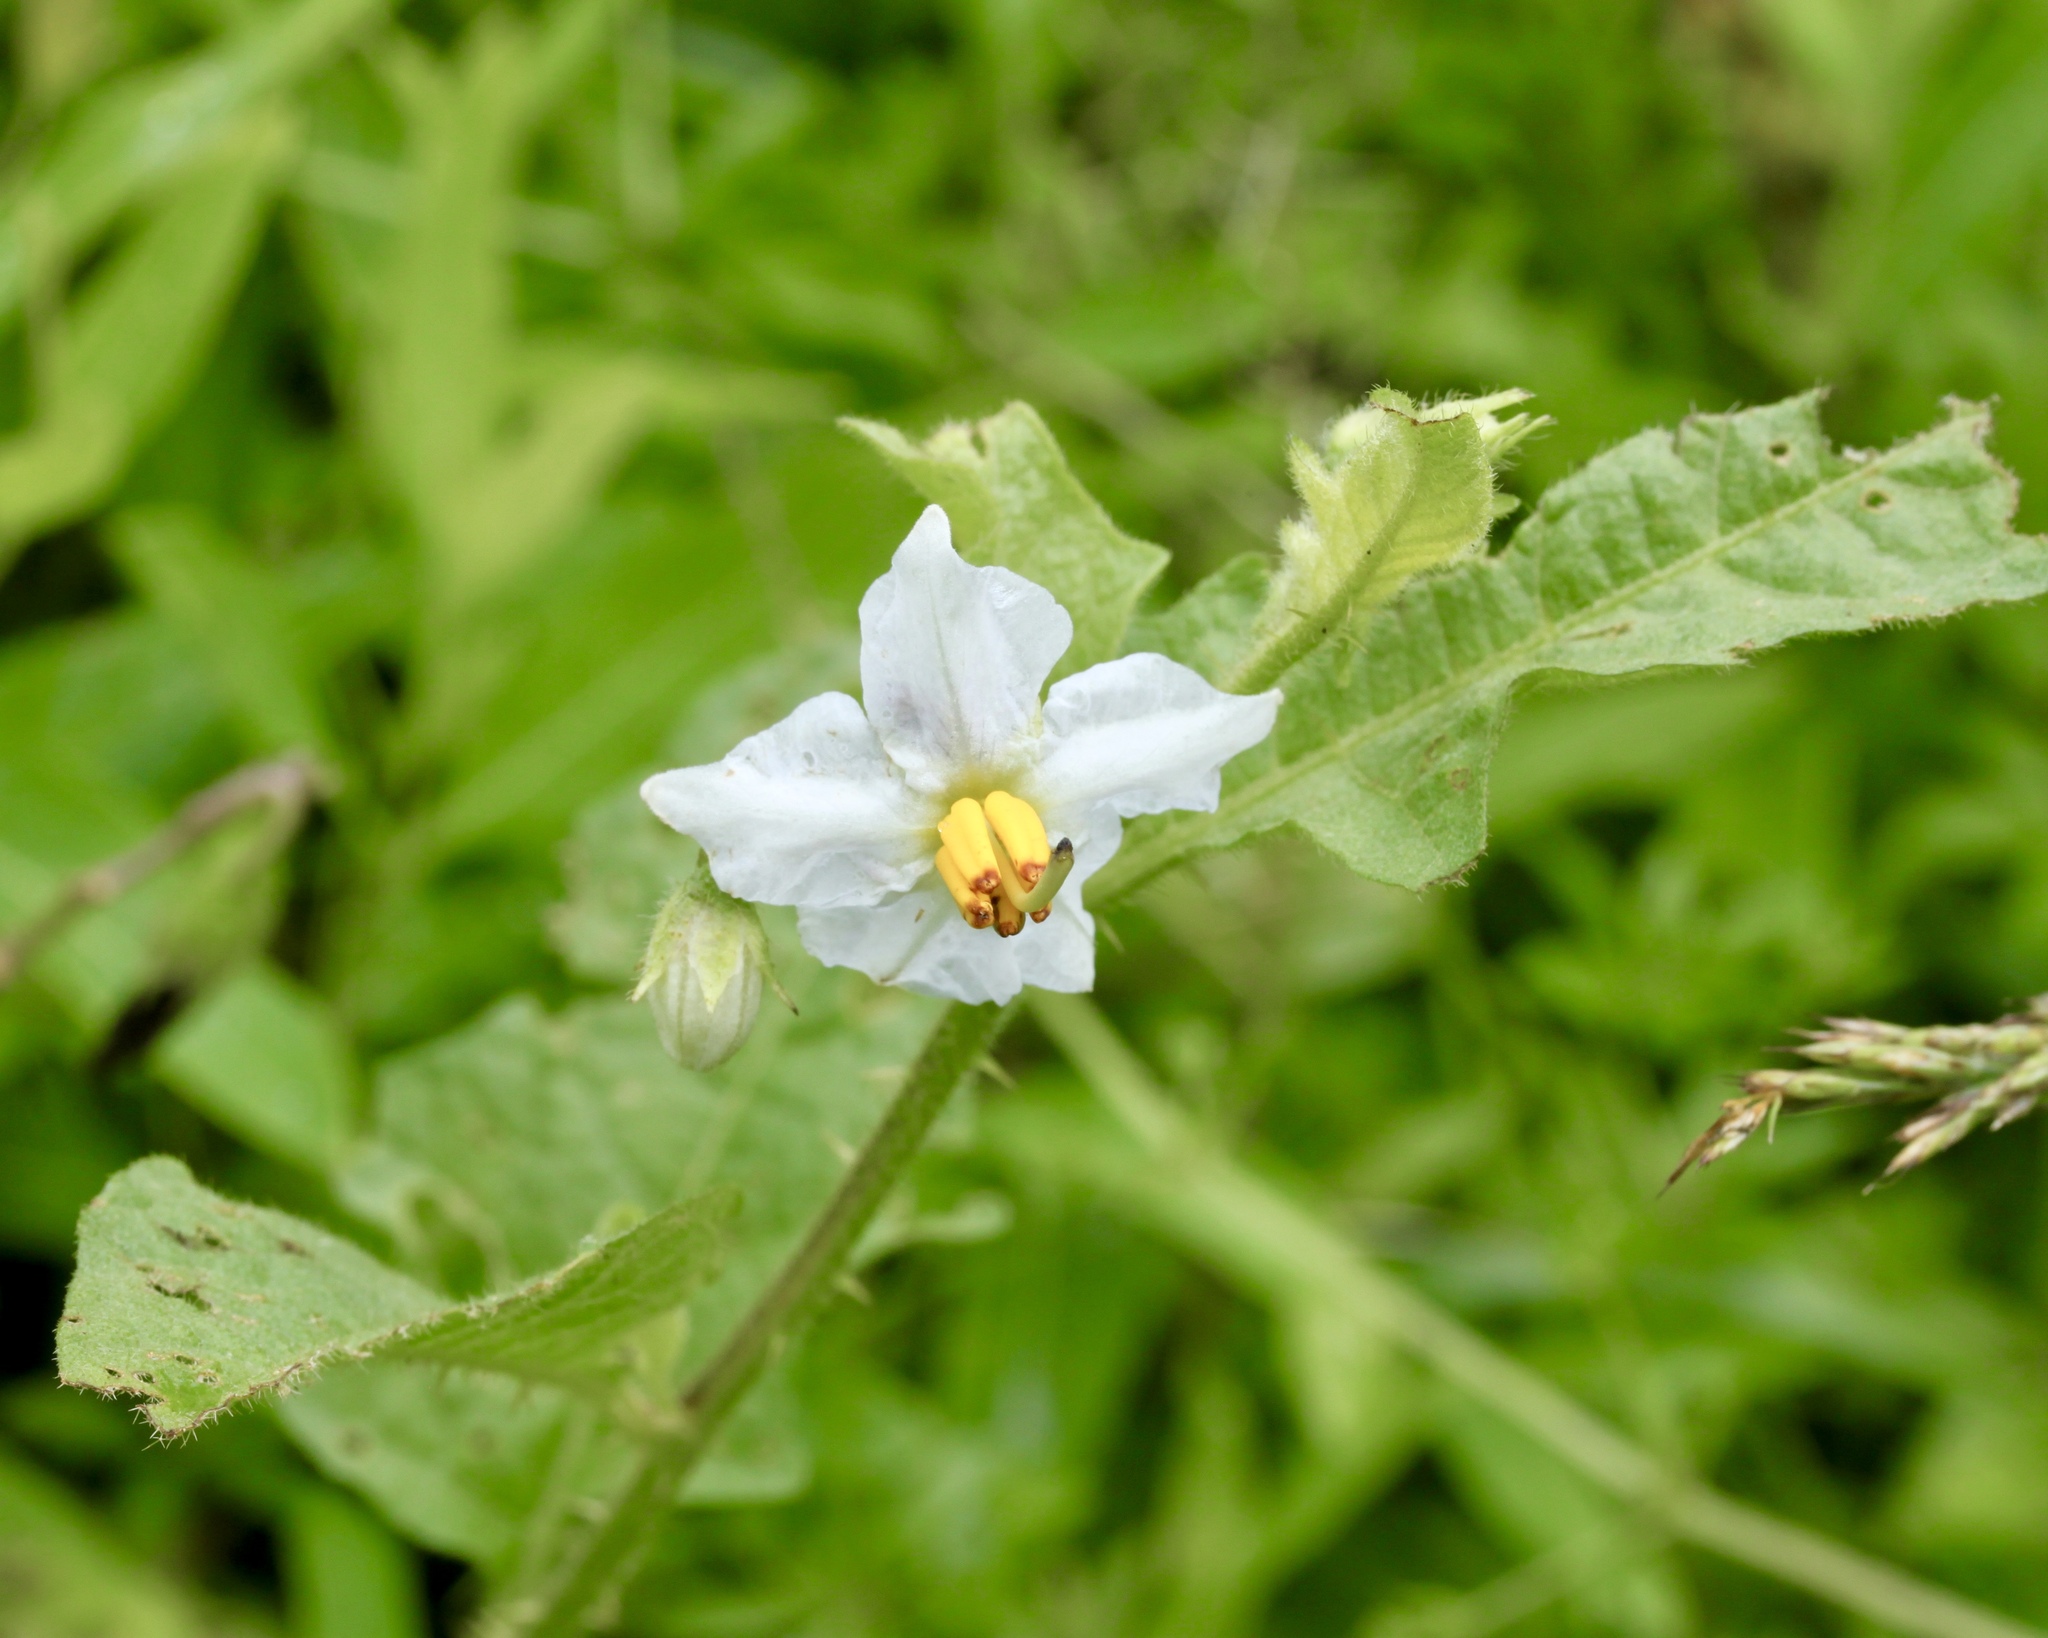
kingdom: Plantae
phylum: Tracheophyta
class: Magnoliopsida
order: Solanales
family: Solanaceae
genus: Solanum
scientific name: Solanum carolinense
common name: Horse-nettle
